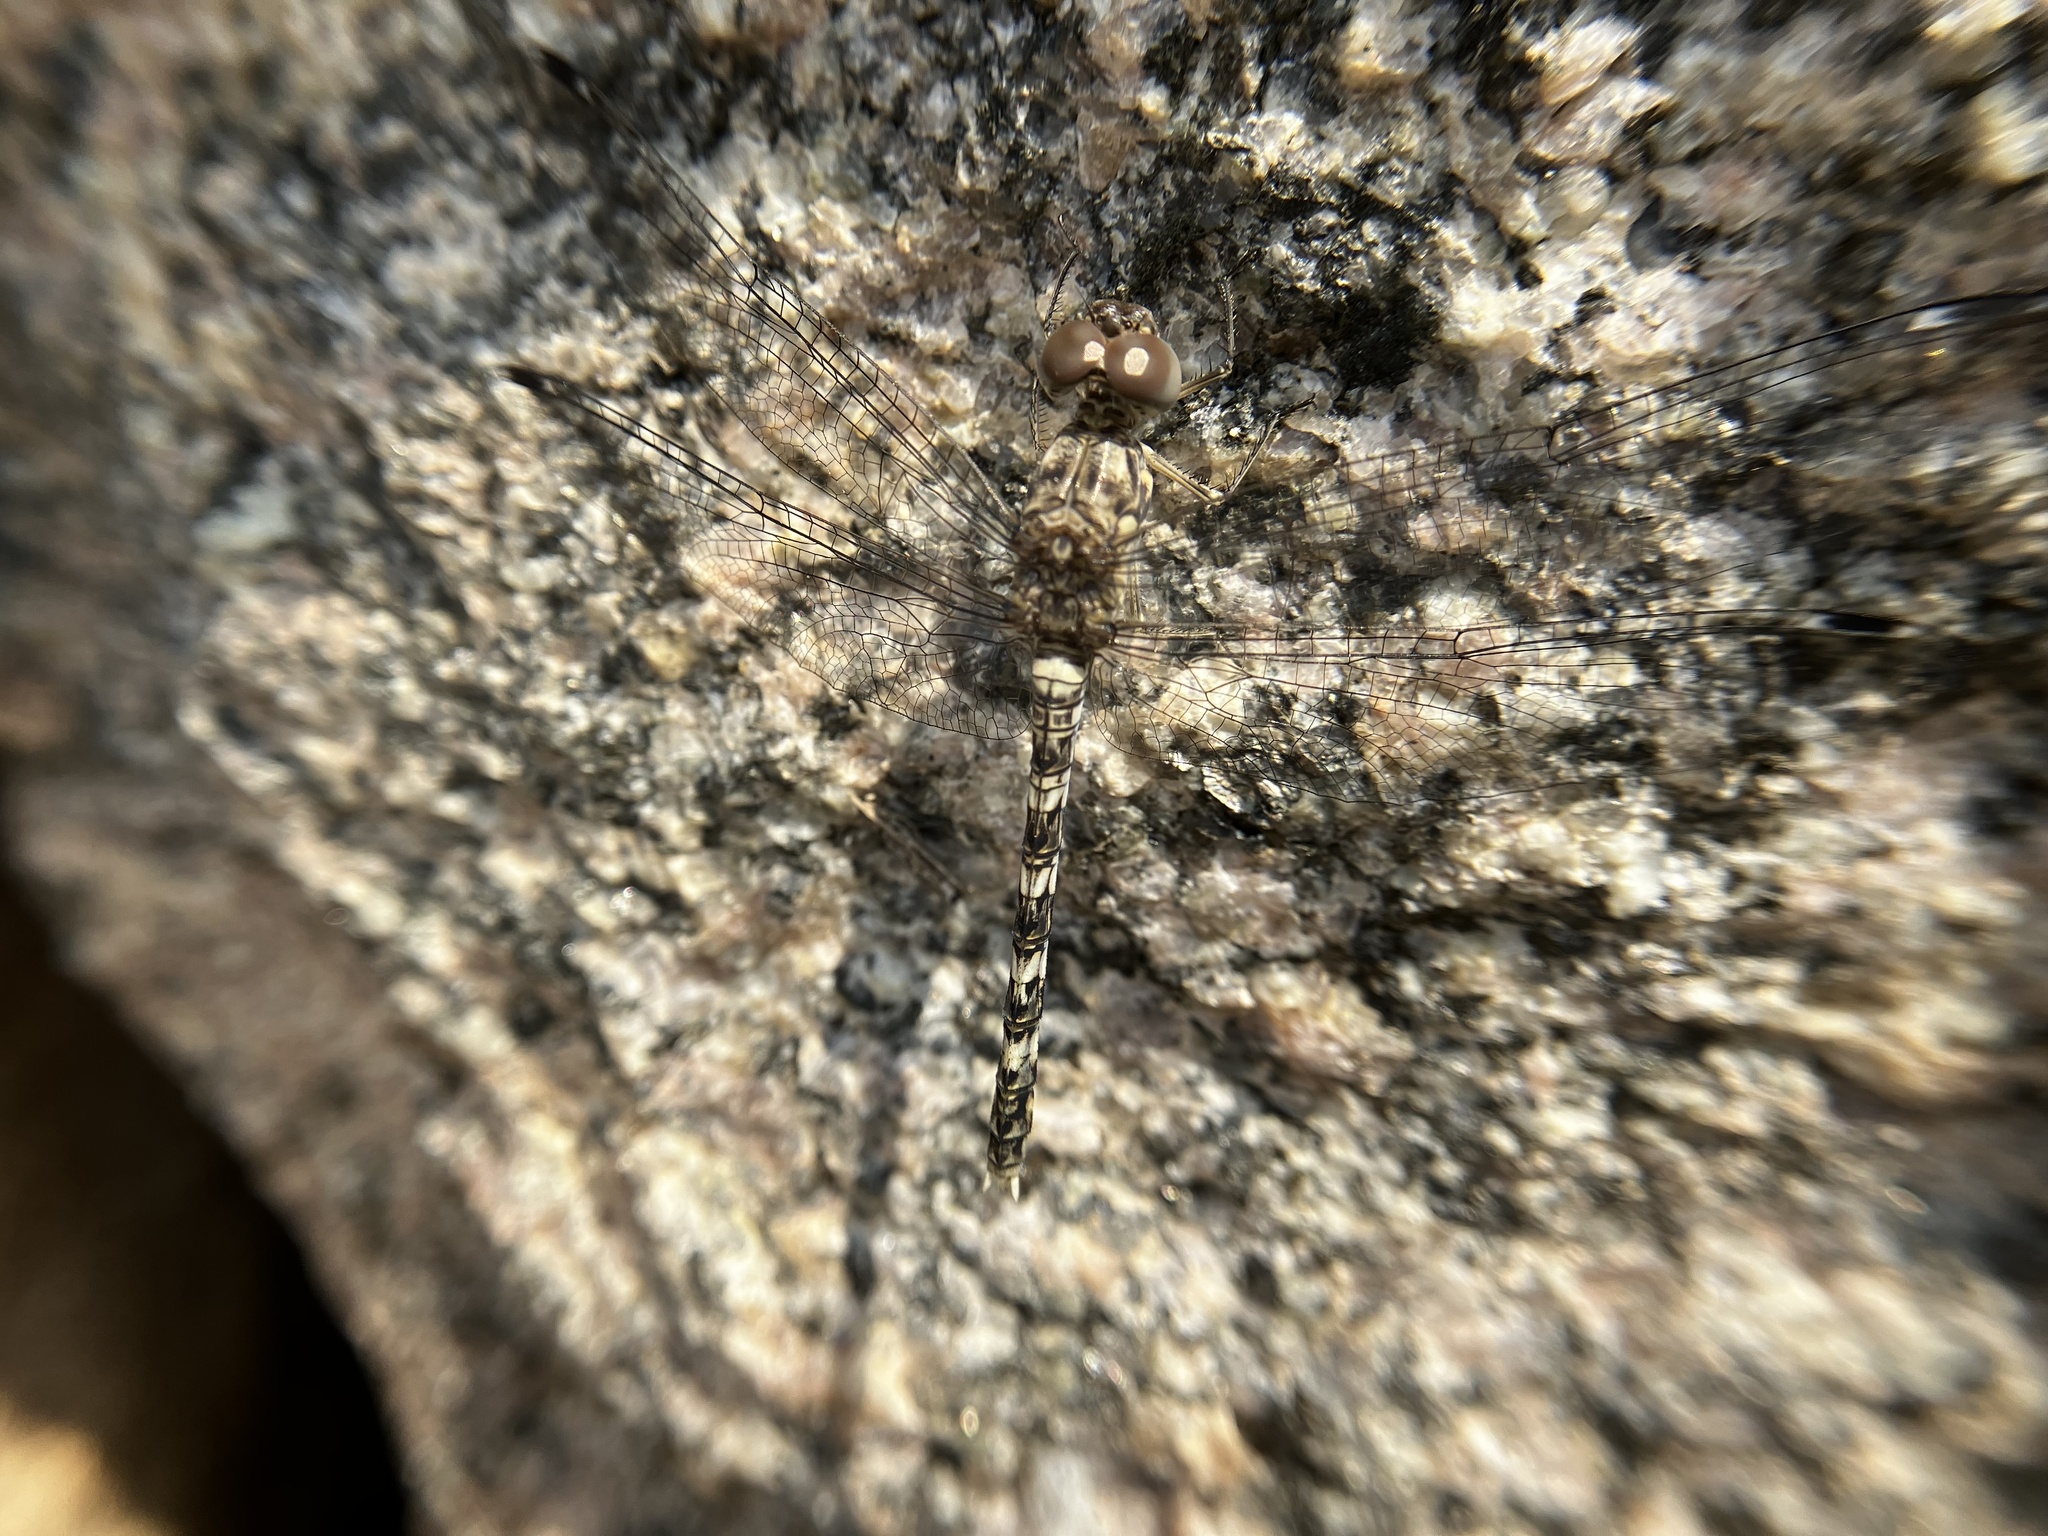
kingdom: Animalia
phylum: Arthropoda
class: Insecta
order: Odonata
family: Libellulidae
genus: Bradinopyga
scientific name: Bradinopyga geminata
